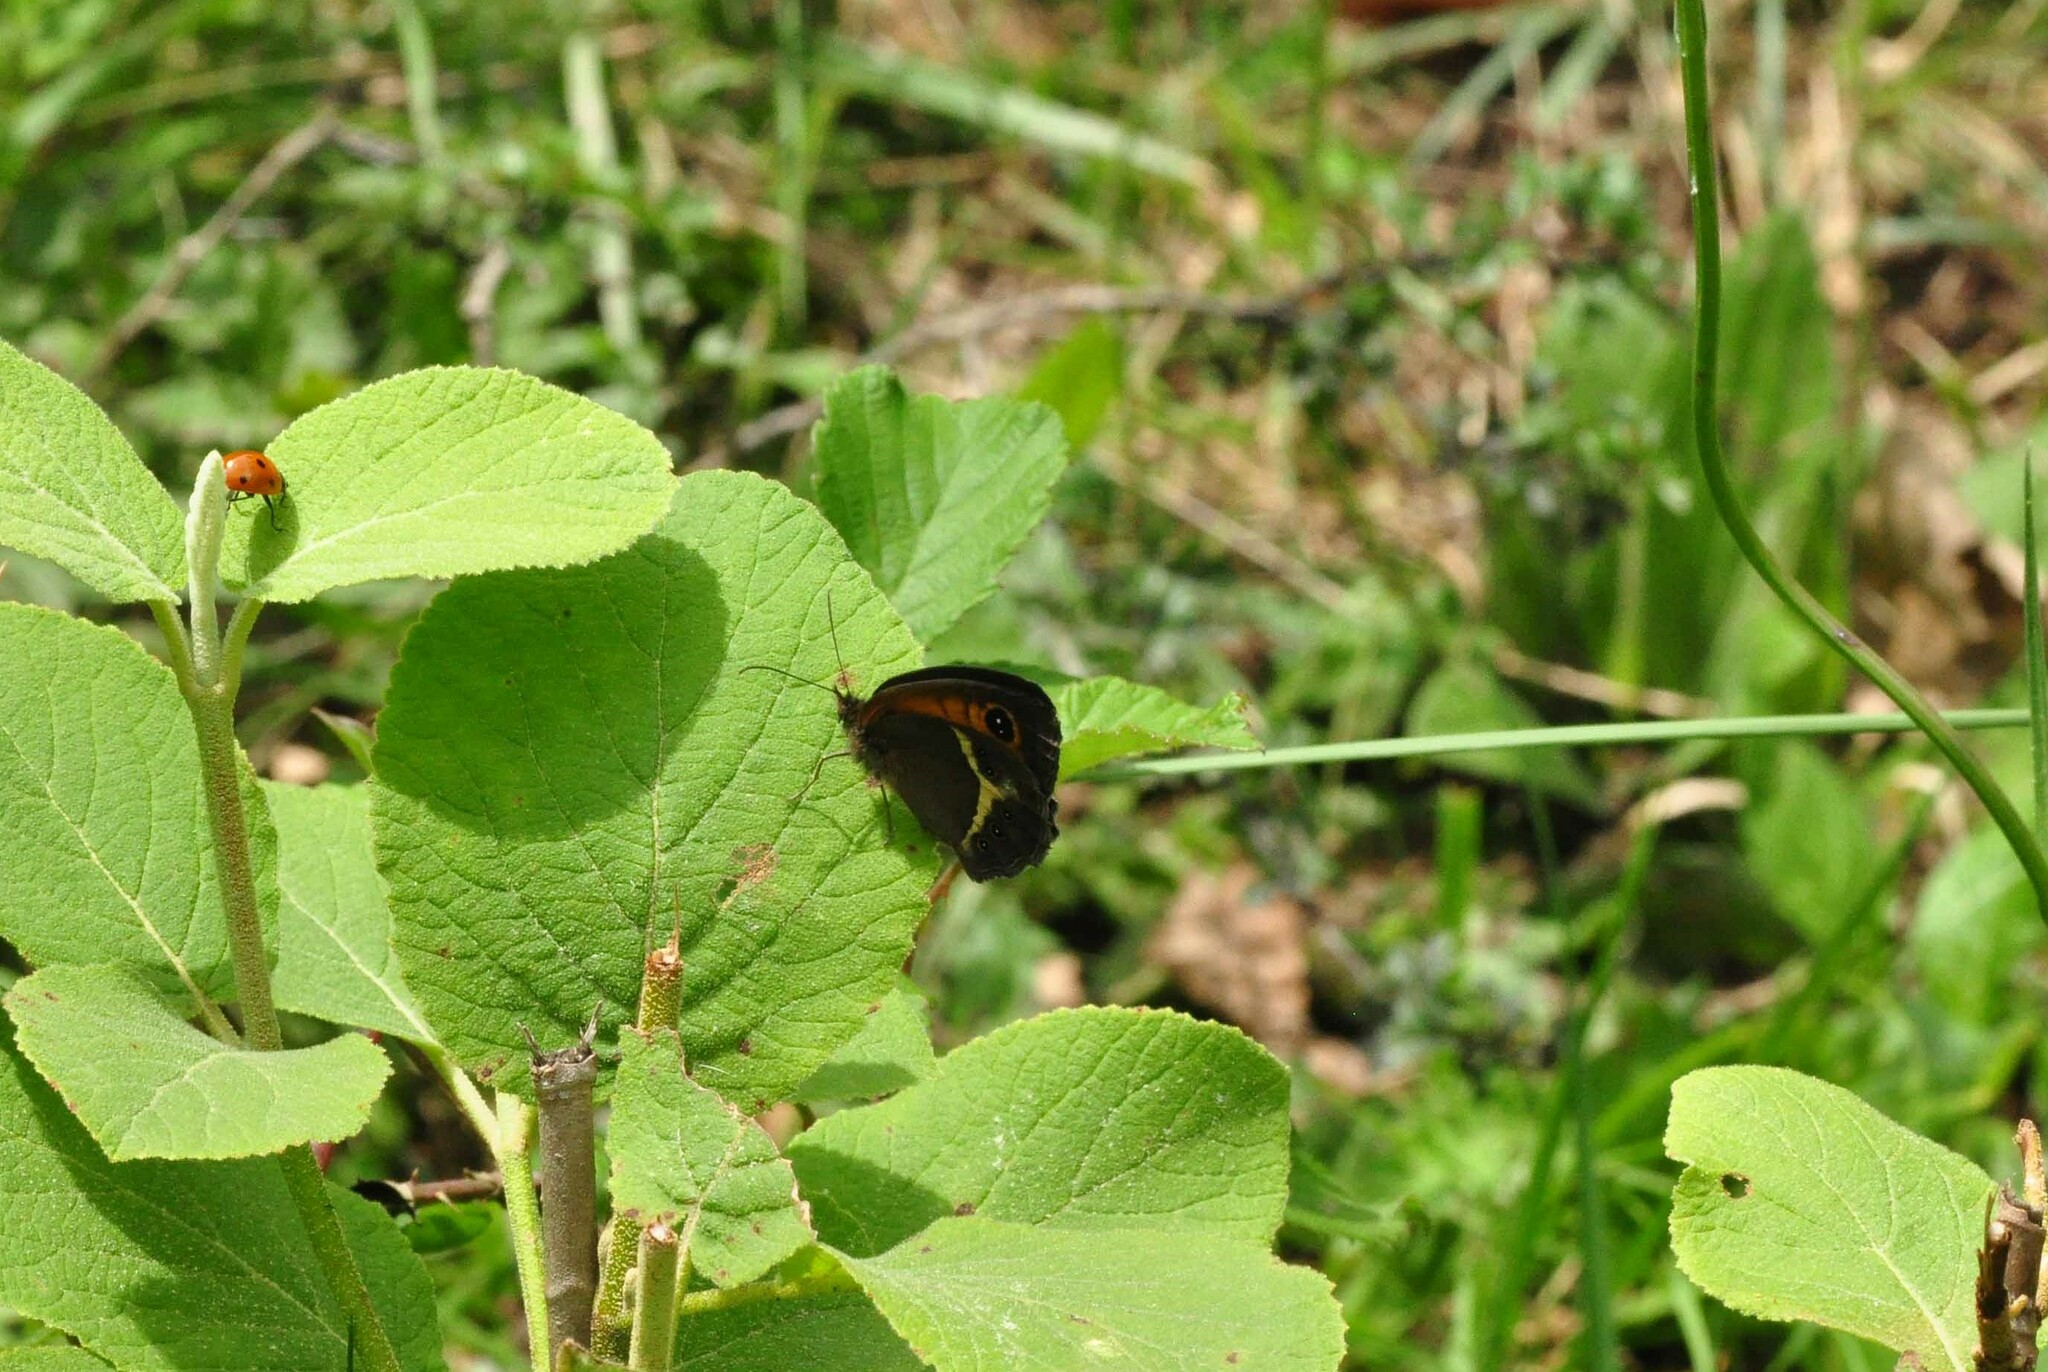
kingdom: Animalia
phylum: Arthropoda
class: Insecta
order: Lepidoptera
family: Nymphalidae
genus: Pyronia
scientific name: Pyronia bathseba
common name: Spanish gatekeeper
